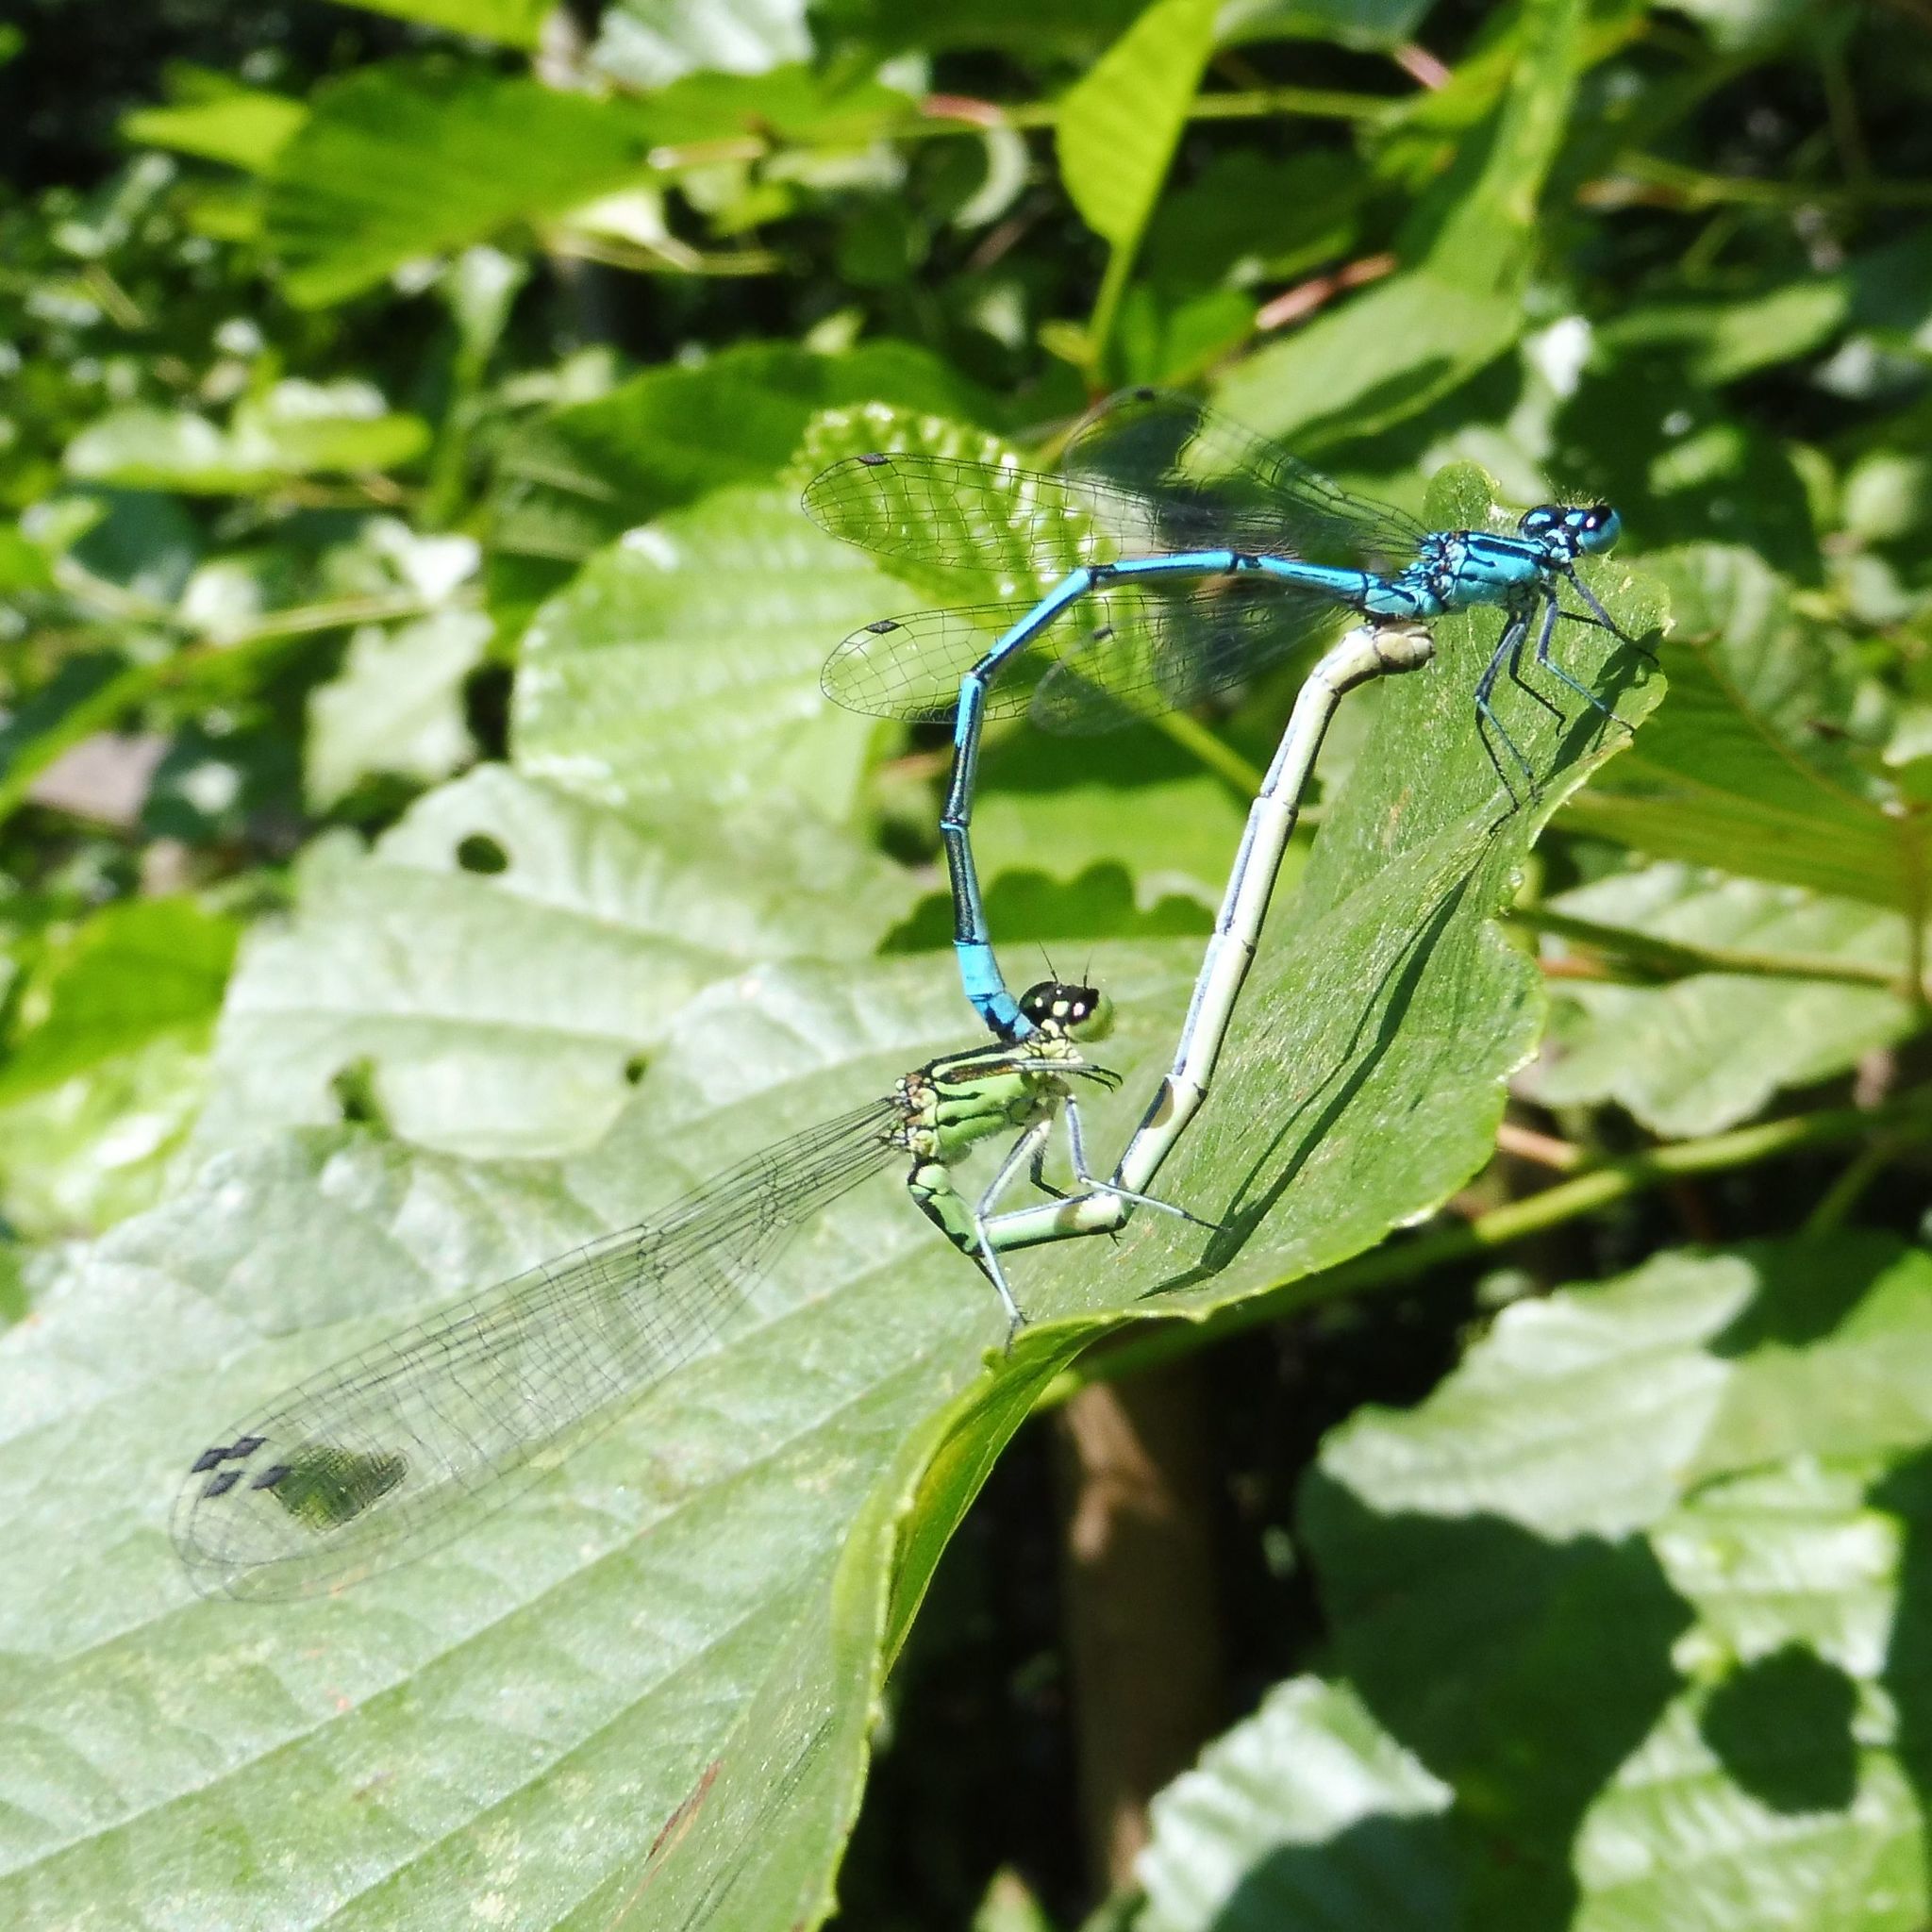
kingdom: Animalia
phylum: Arthropoda
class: Insecta
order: Odonata
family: Coenagrionidae
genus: Coenagrion
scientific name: Coenagrion puella
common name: Azure damselfly
